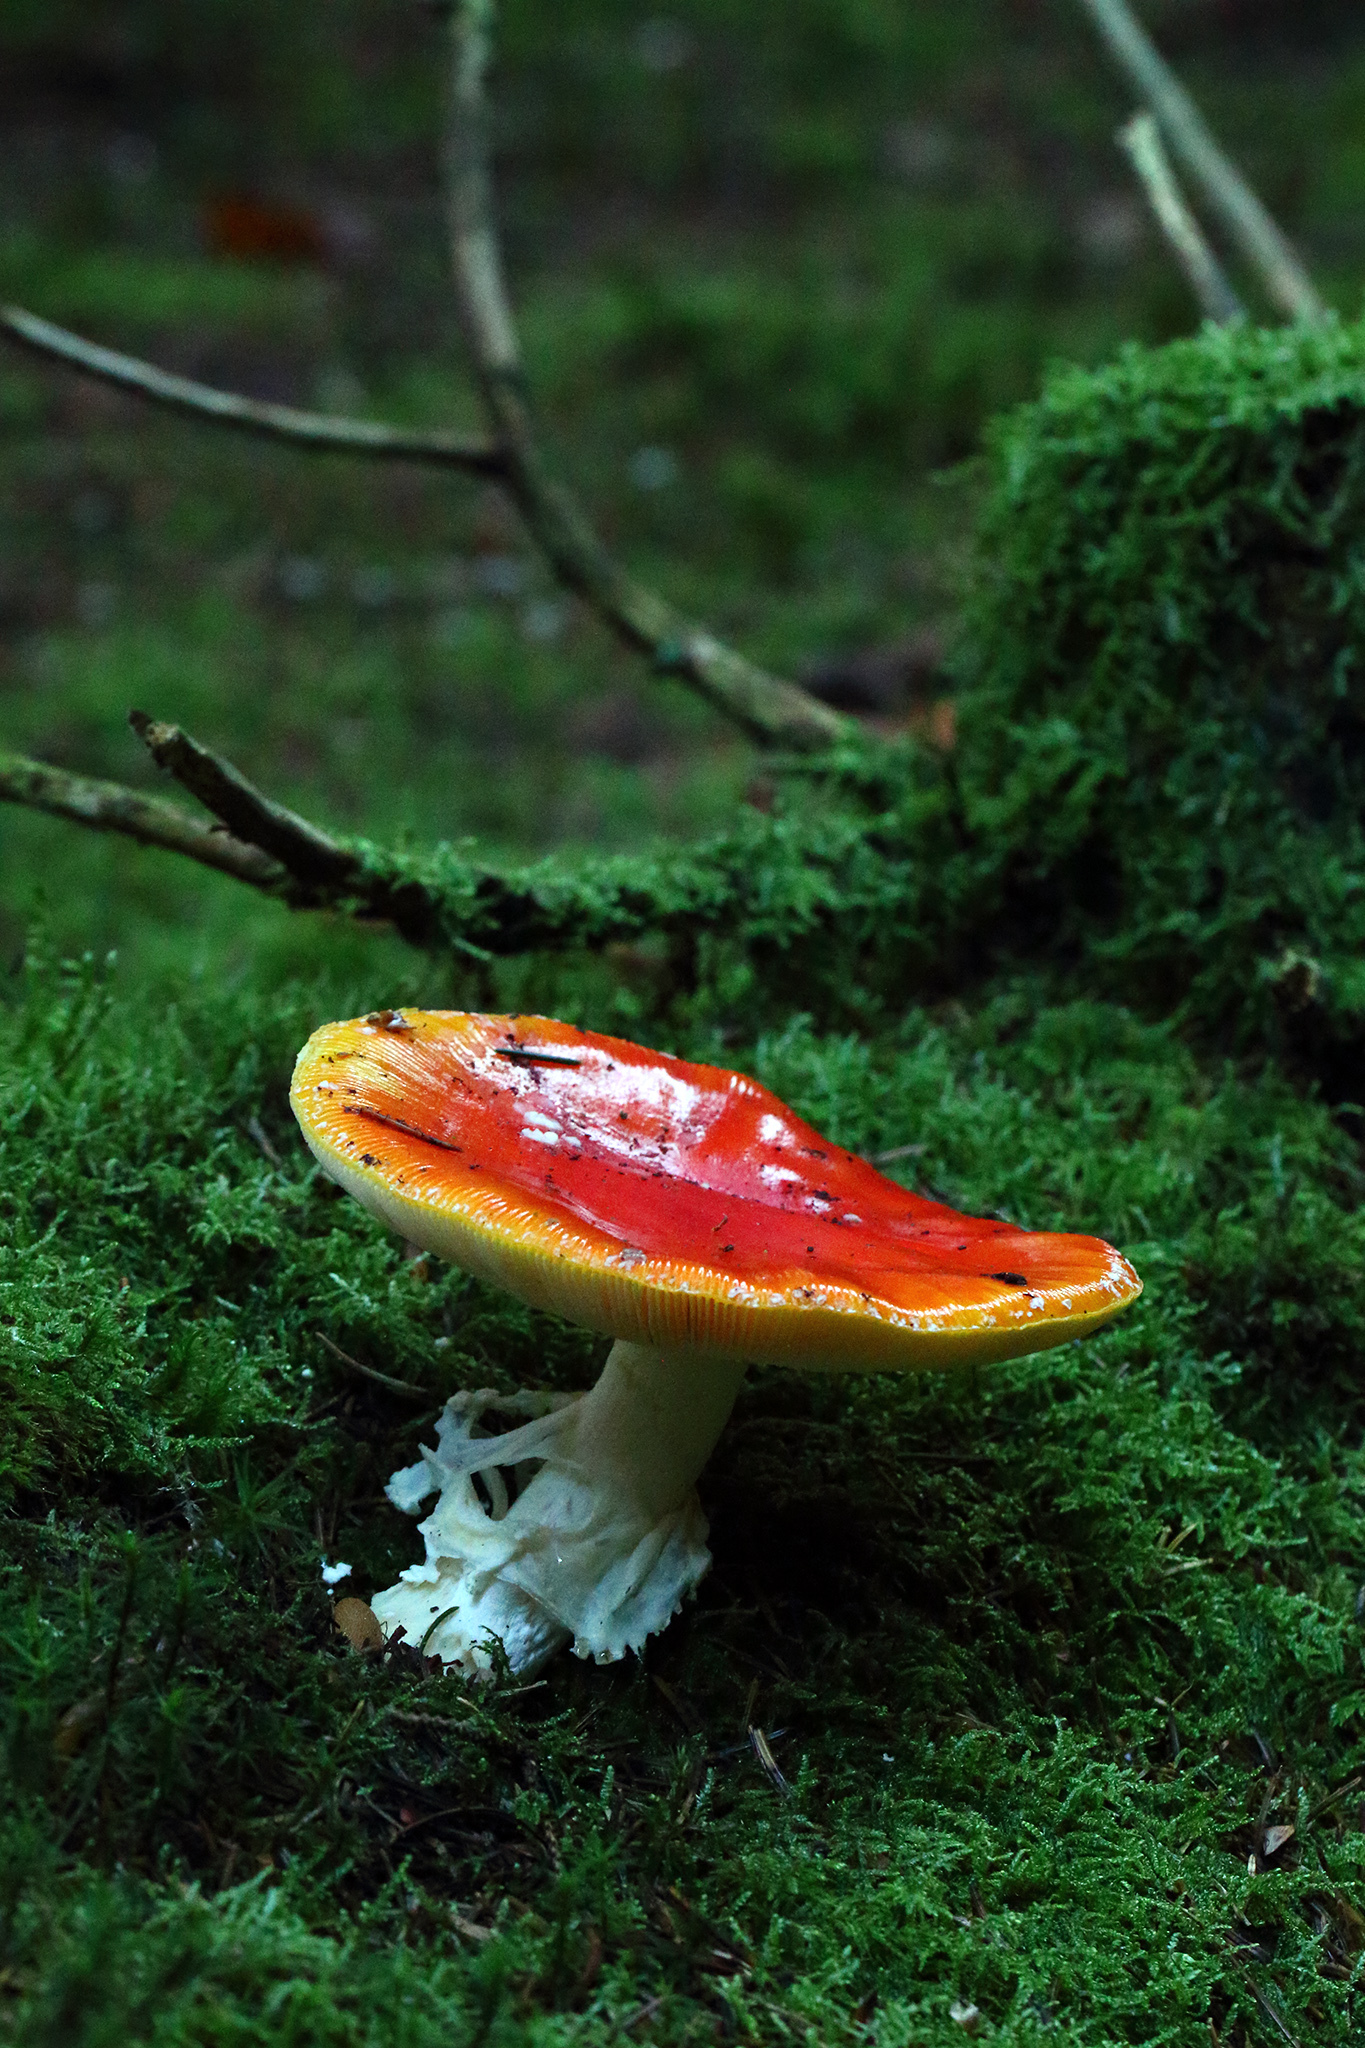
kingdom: Fungi
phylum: Basidiomycota
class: Agaricomycetes
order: Agaricales
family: Amanitaceae
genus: Amanita
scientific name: Amanita muscaria
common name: Fly agaric
